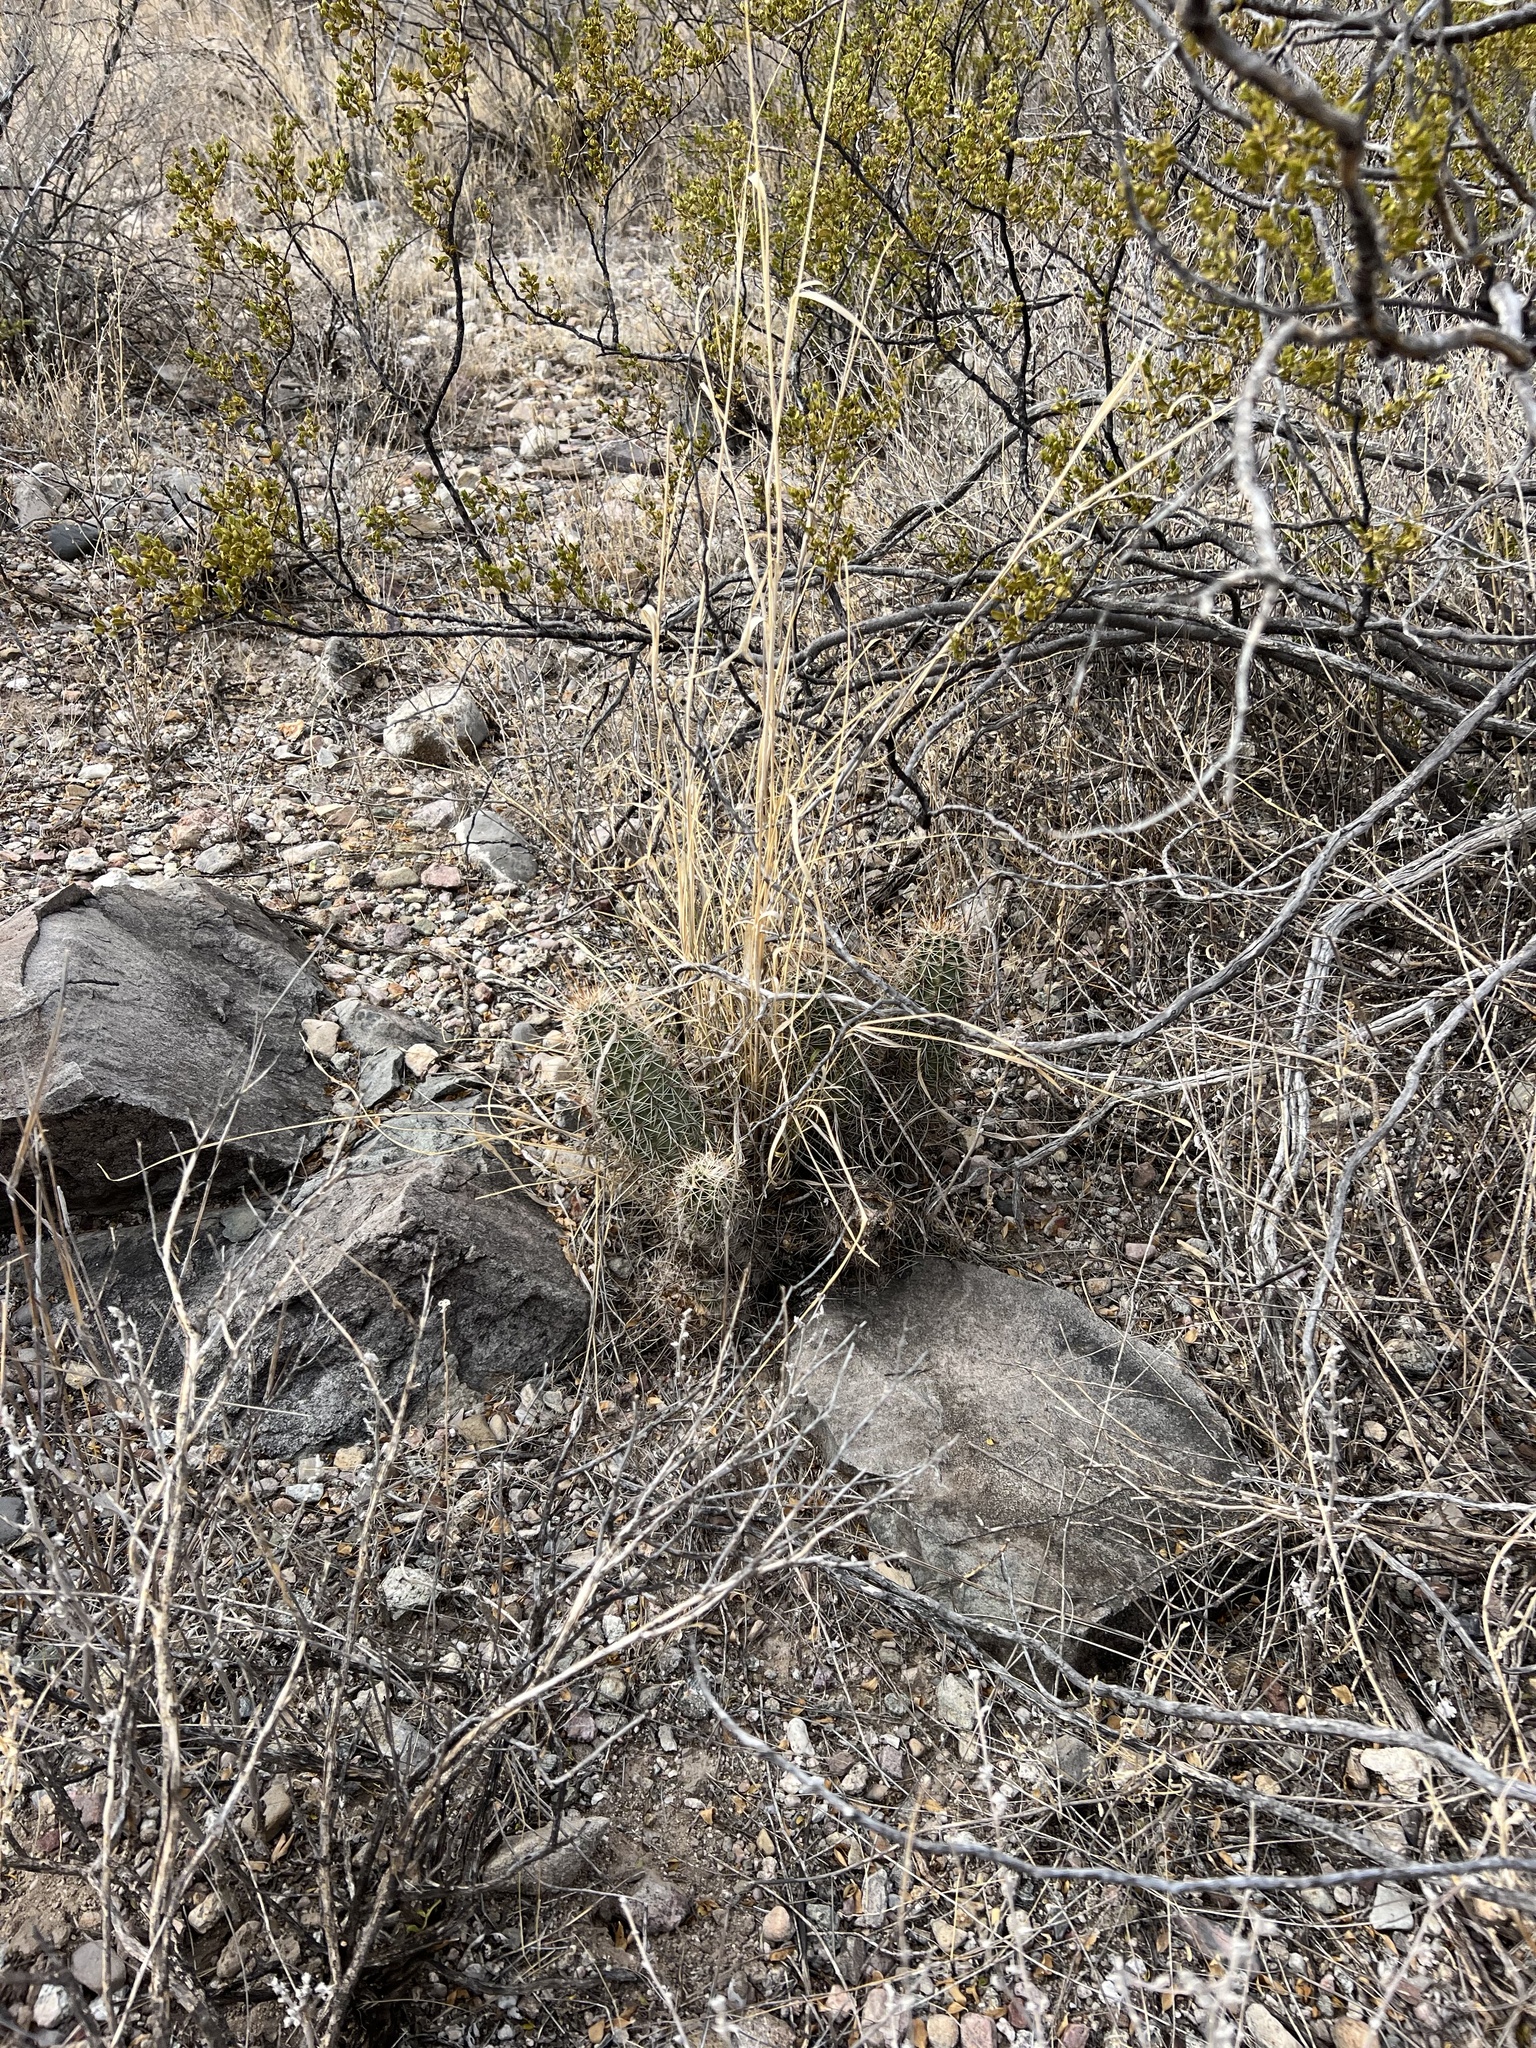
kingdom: Plantae
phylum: Tracheophyta
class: Magnoliopsida
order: Caryophyllales
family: Cactaceae
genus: Echinocereus
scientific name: Echinocereus fendleri
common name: Fendler's hedgehog cactus
